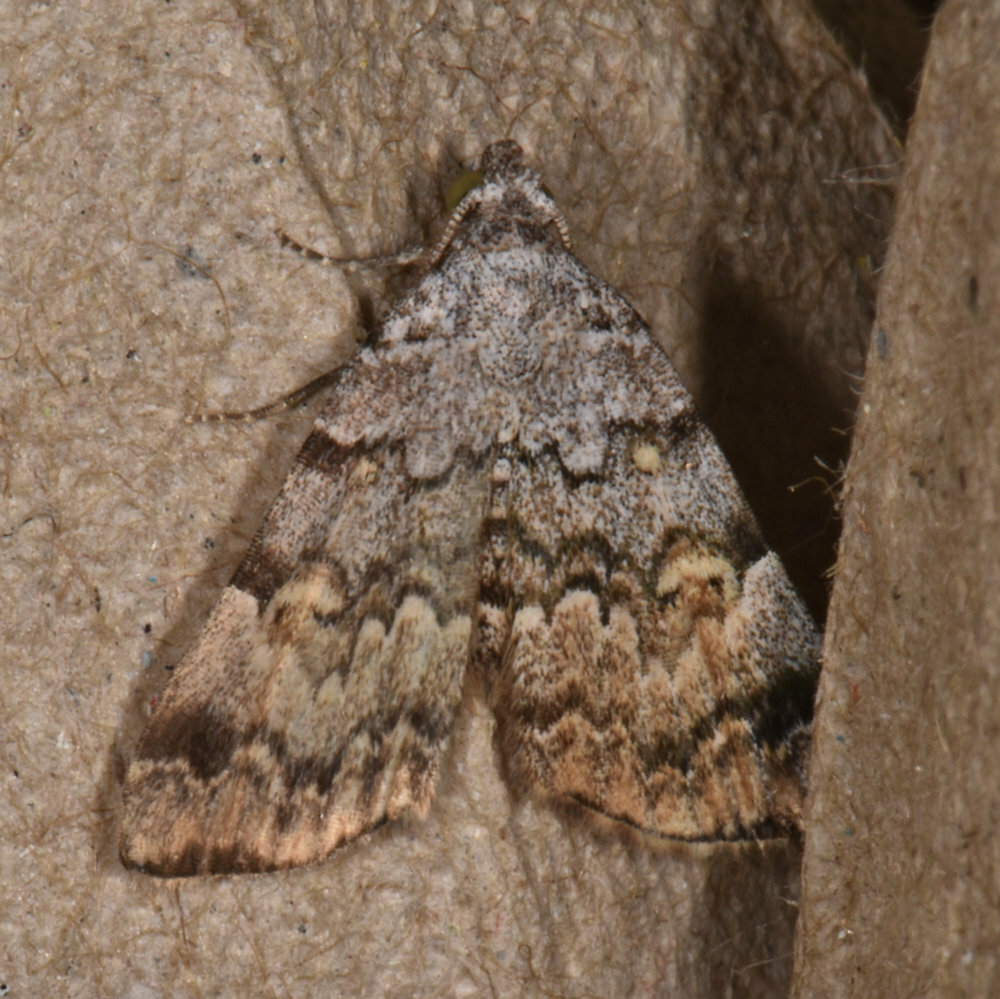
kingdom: Animalia
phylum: Arthropoda
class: Insecta
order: Lepidoptera
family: Erebidae
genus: Idia
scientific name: Idia americalis
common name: American idia moth
